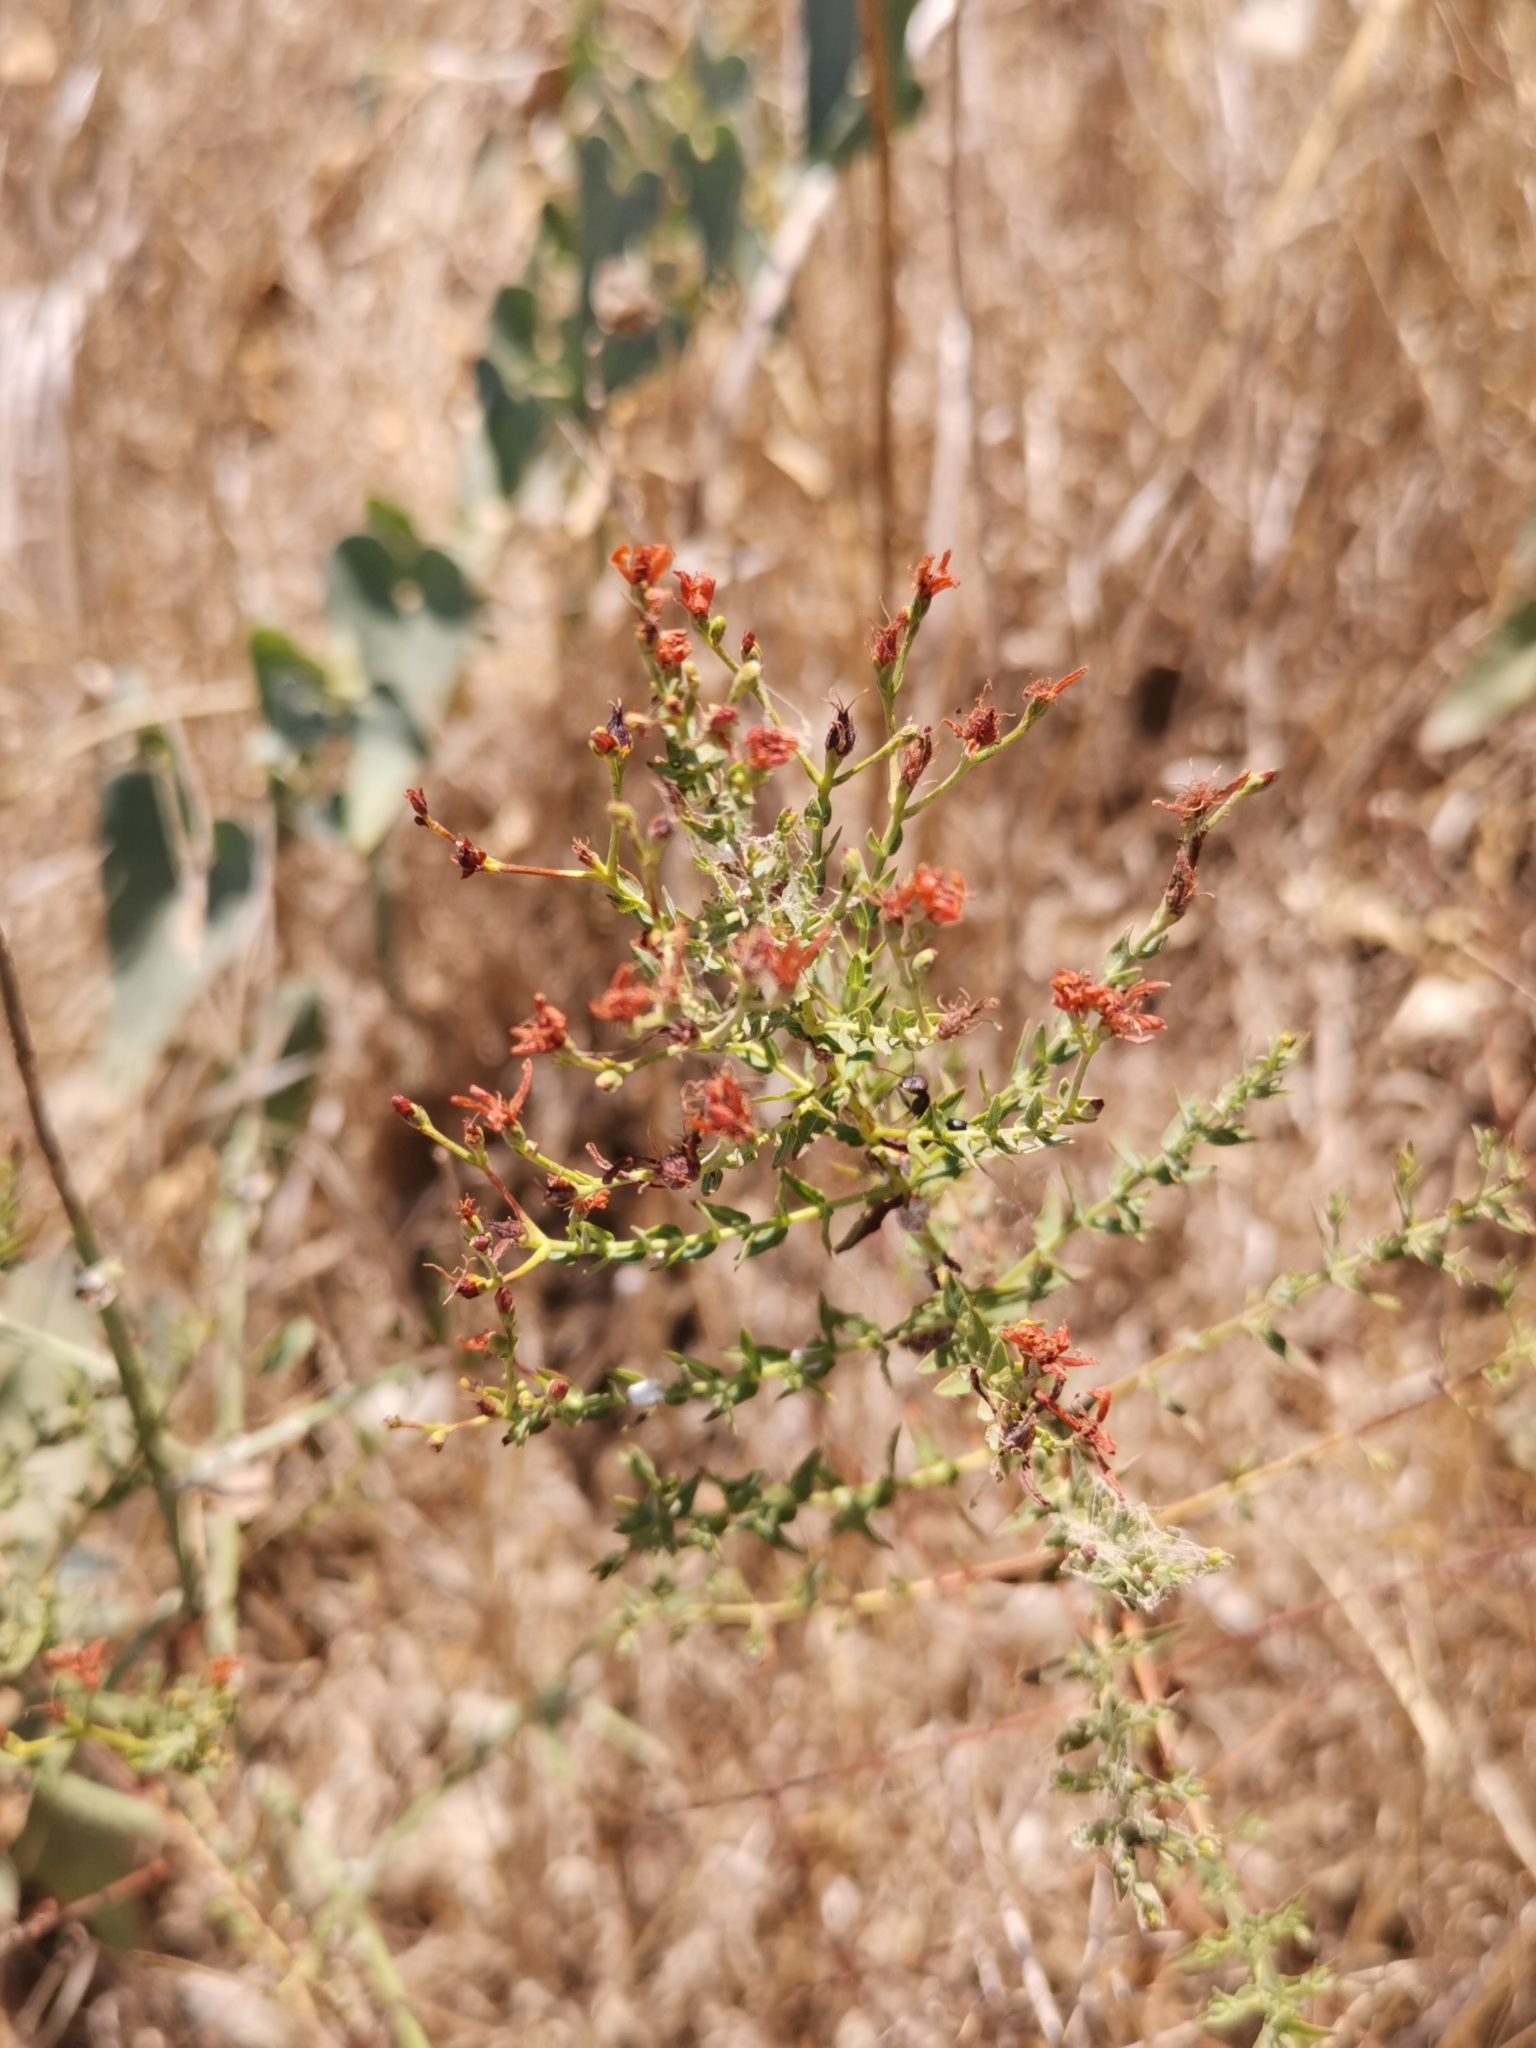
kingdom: Plantae
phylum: Tracheophyta
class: Magnoliopsida
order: Malpighiales
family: Hypericaceae
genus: Hypericum
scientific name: Hypericum triquetrifolium
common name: Tangled hypericum
